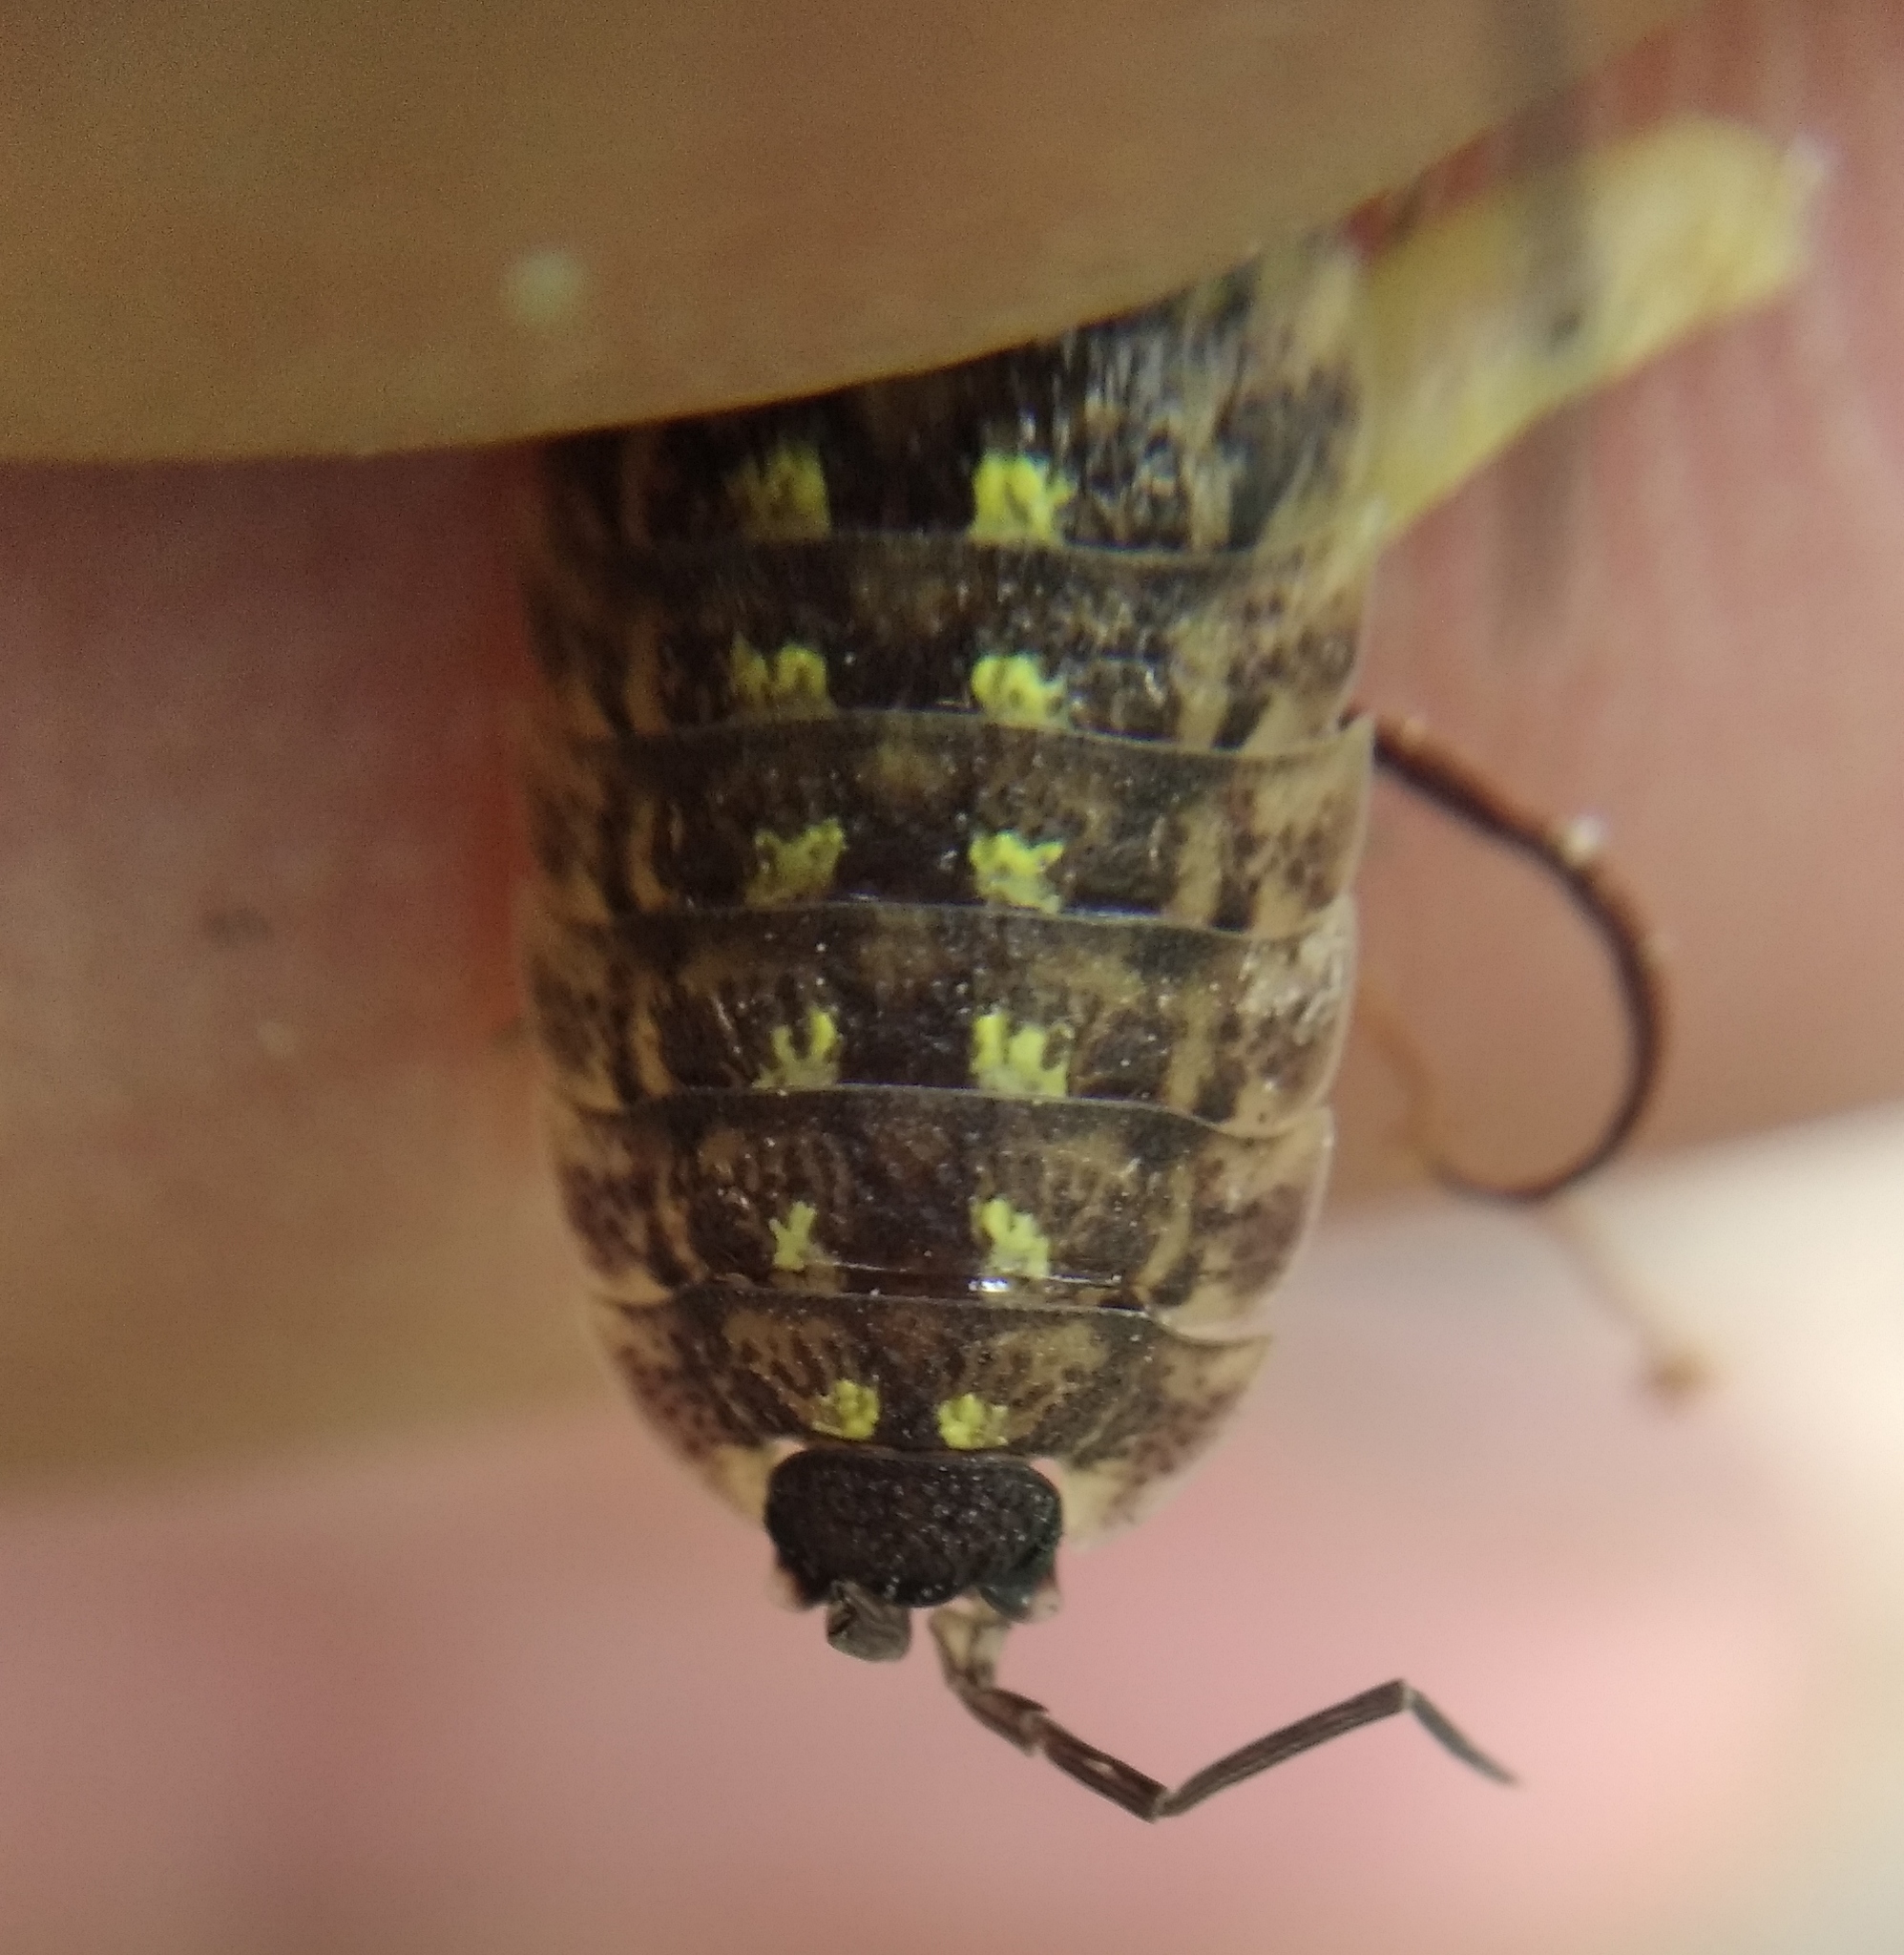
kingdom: Animalia
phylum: Arthropoda
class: Malacostraca
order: Isopoda
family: Porcellionidae
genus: Porcellio
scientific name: Porcellio spinicornis
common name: Painted woodlouse
